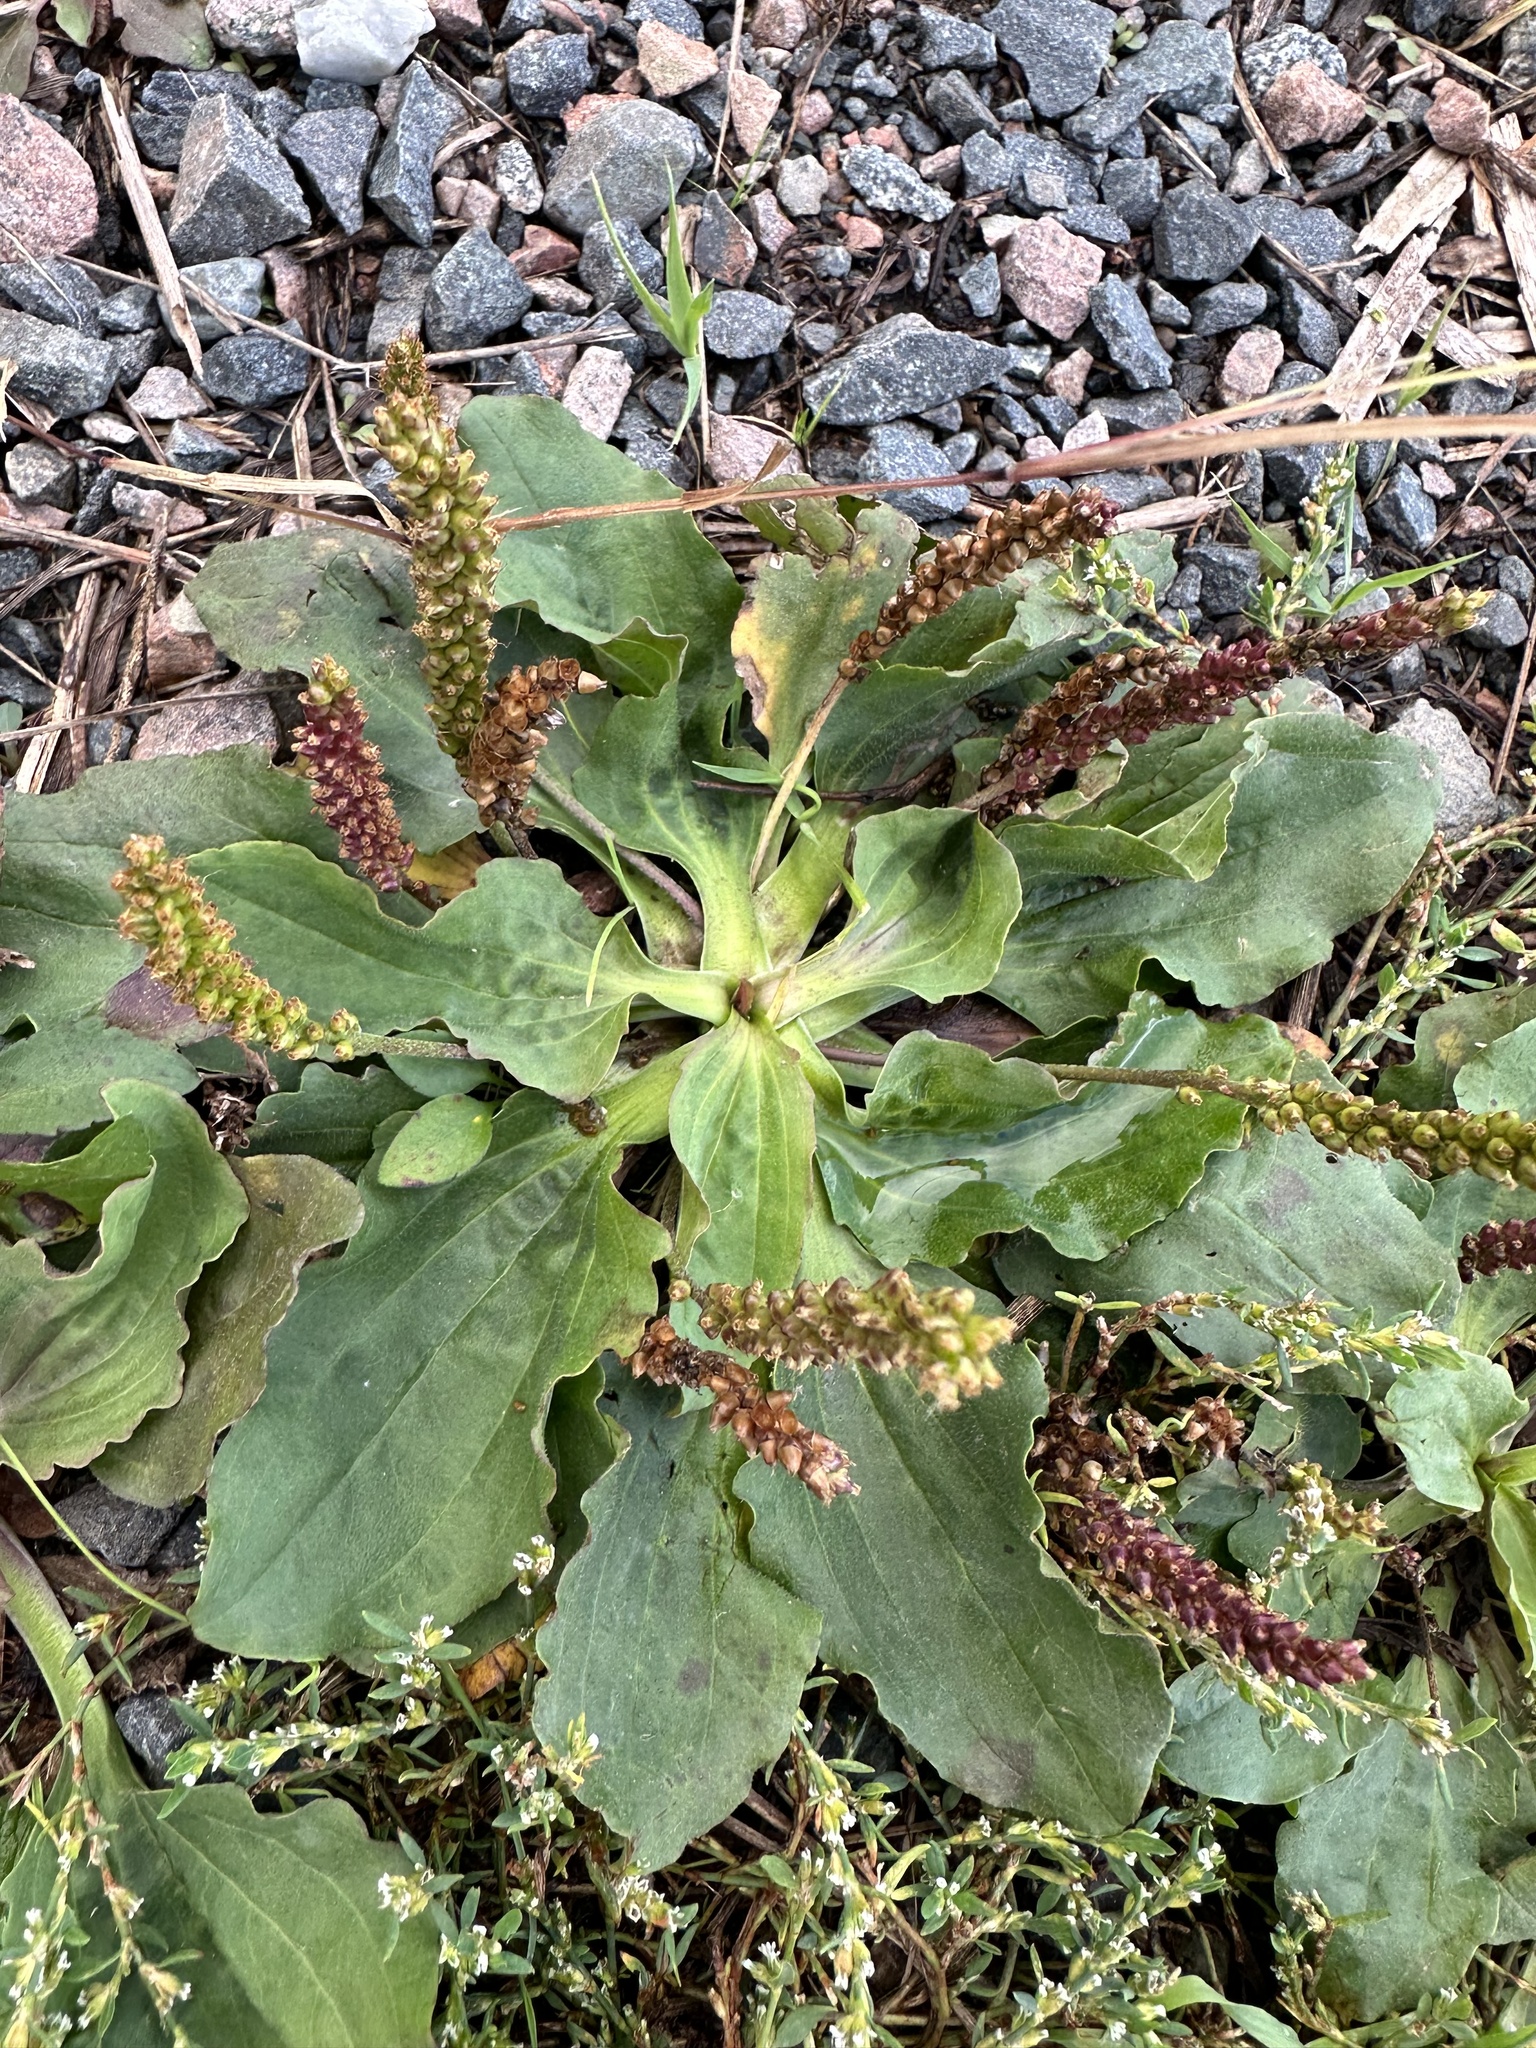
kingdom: Plantae
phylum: Tracheophyta
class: Magnoliopsida
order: Lamiales
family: Plantaginaceae
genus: Plantago
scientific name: Plantago major
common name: Common plantain
